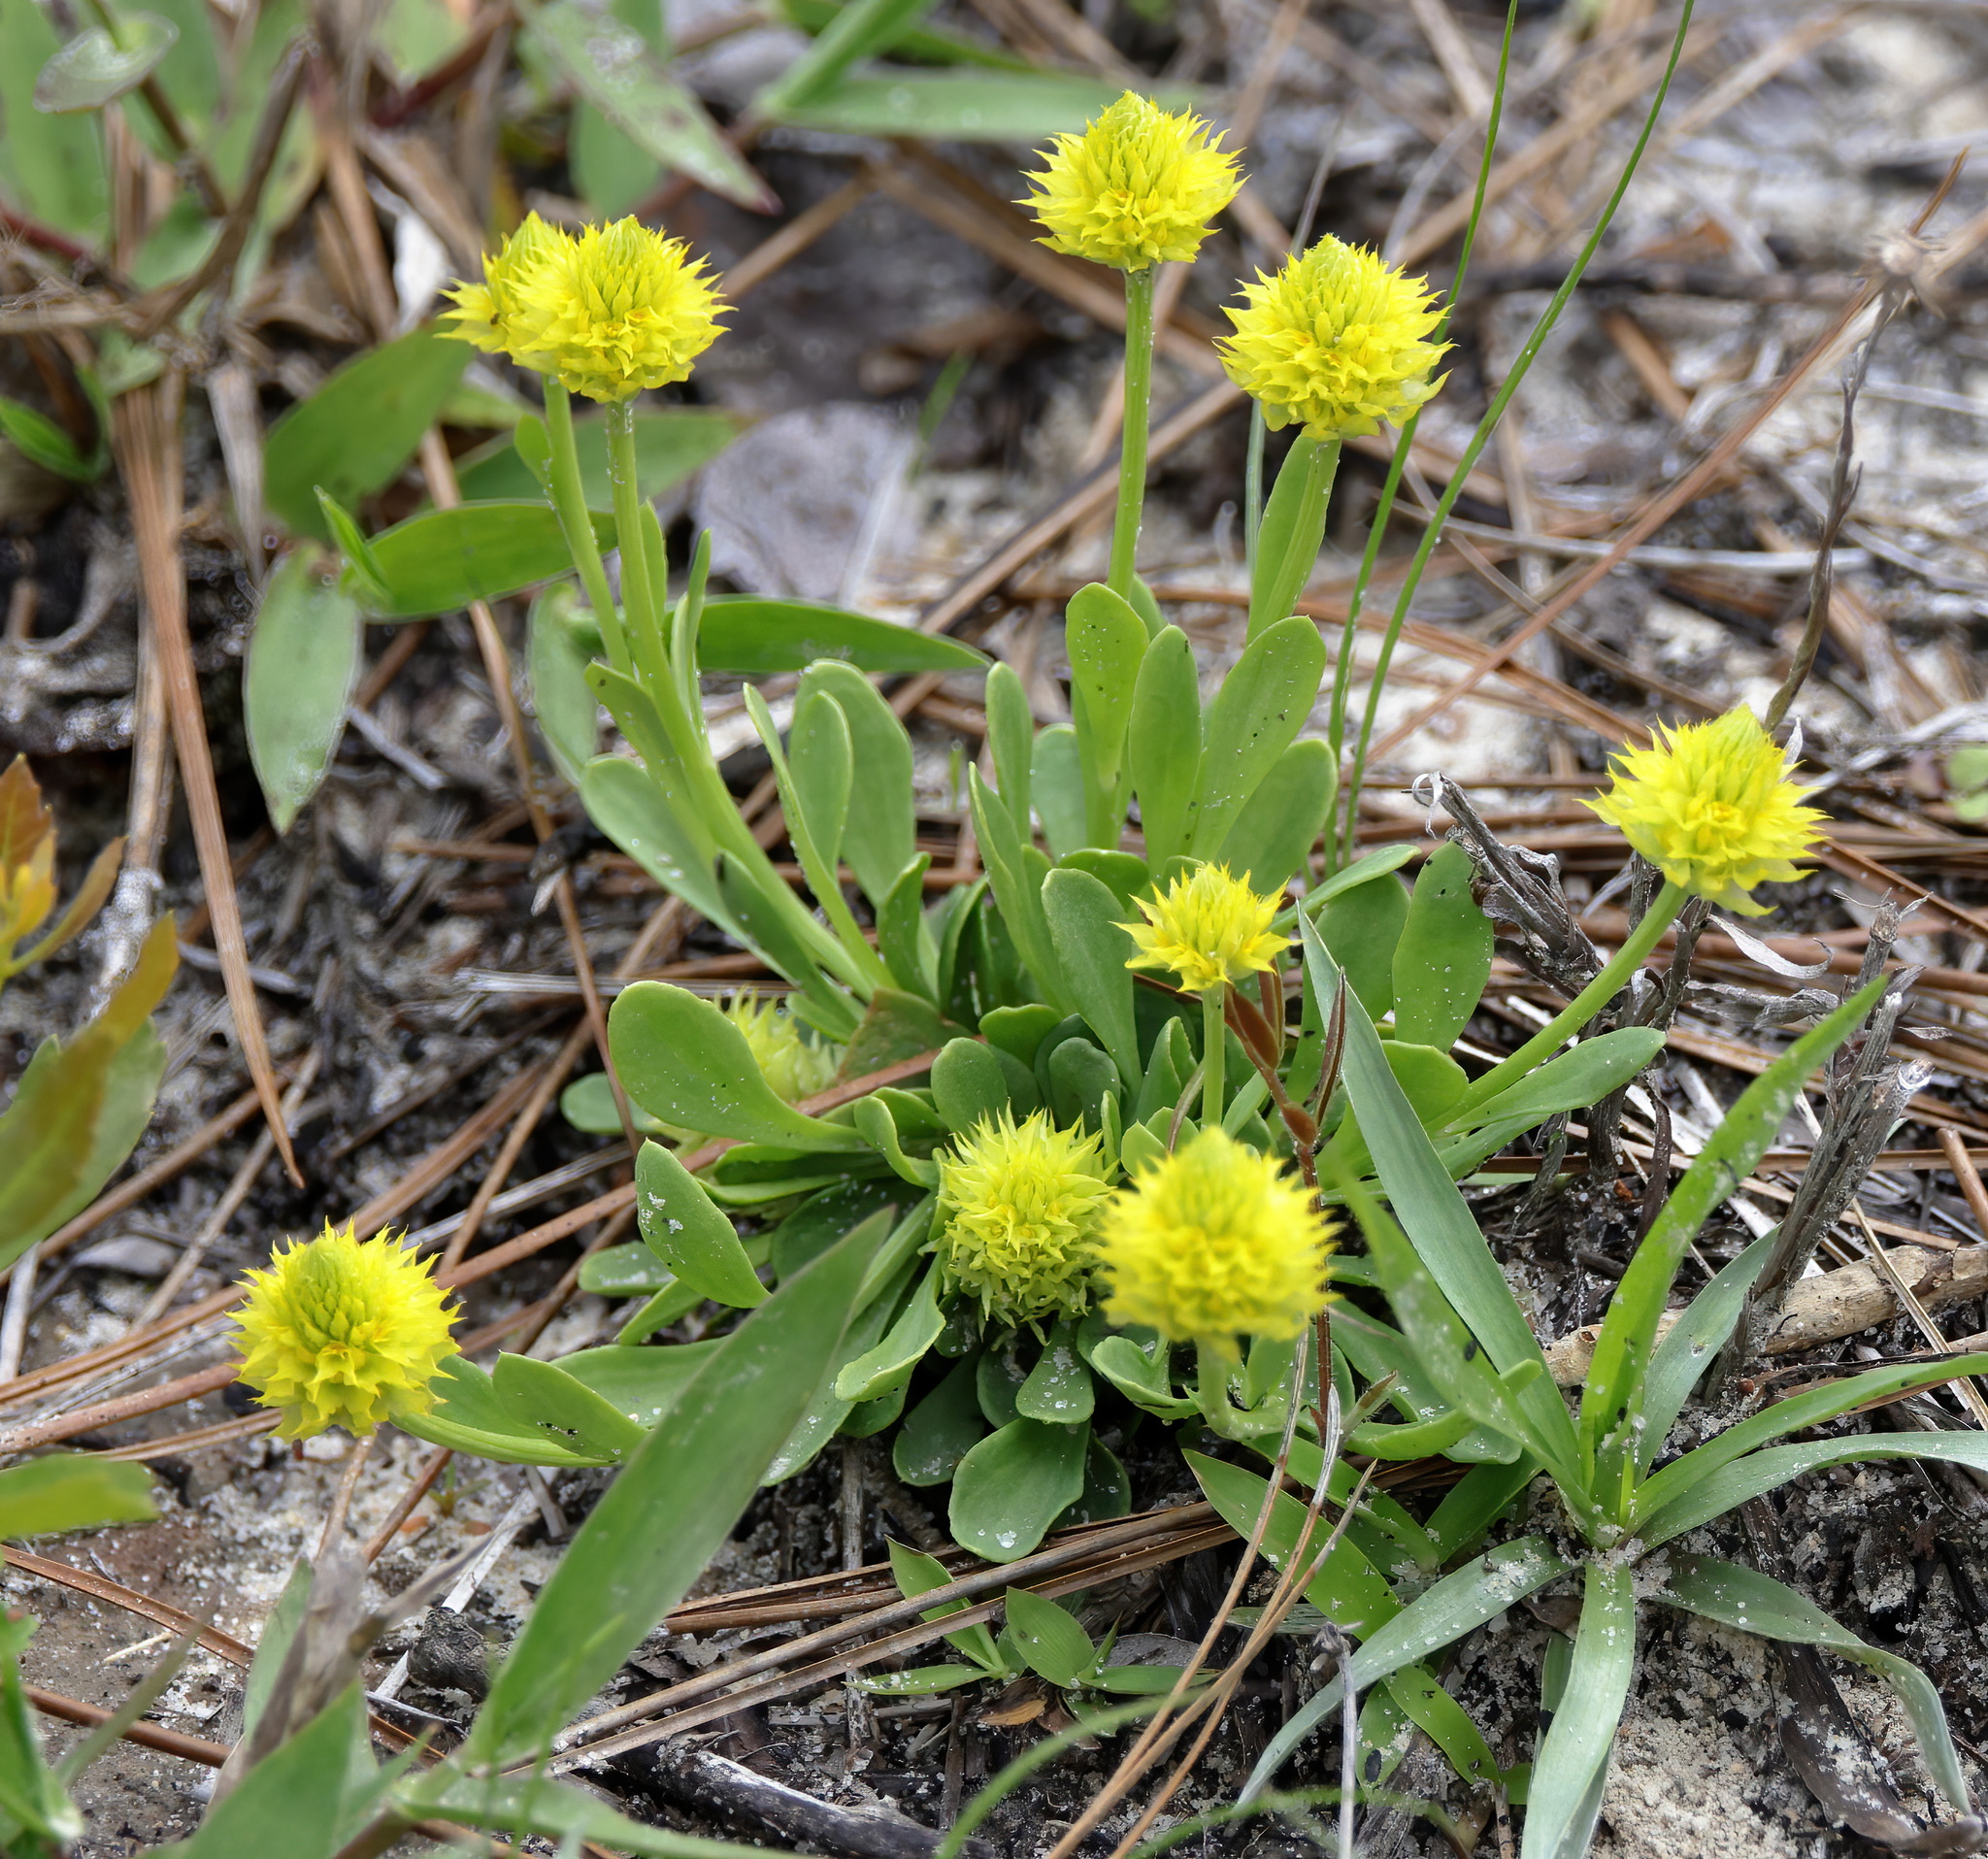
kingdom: Plantae
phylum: Tracheophyta
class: Magnoliopsida
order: Fabales
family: Polygalaceae
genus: Polygala
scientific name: Polygala nana
